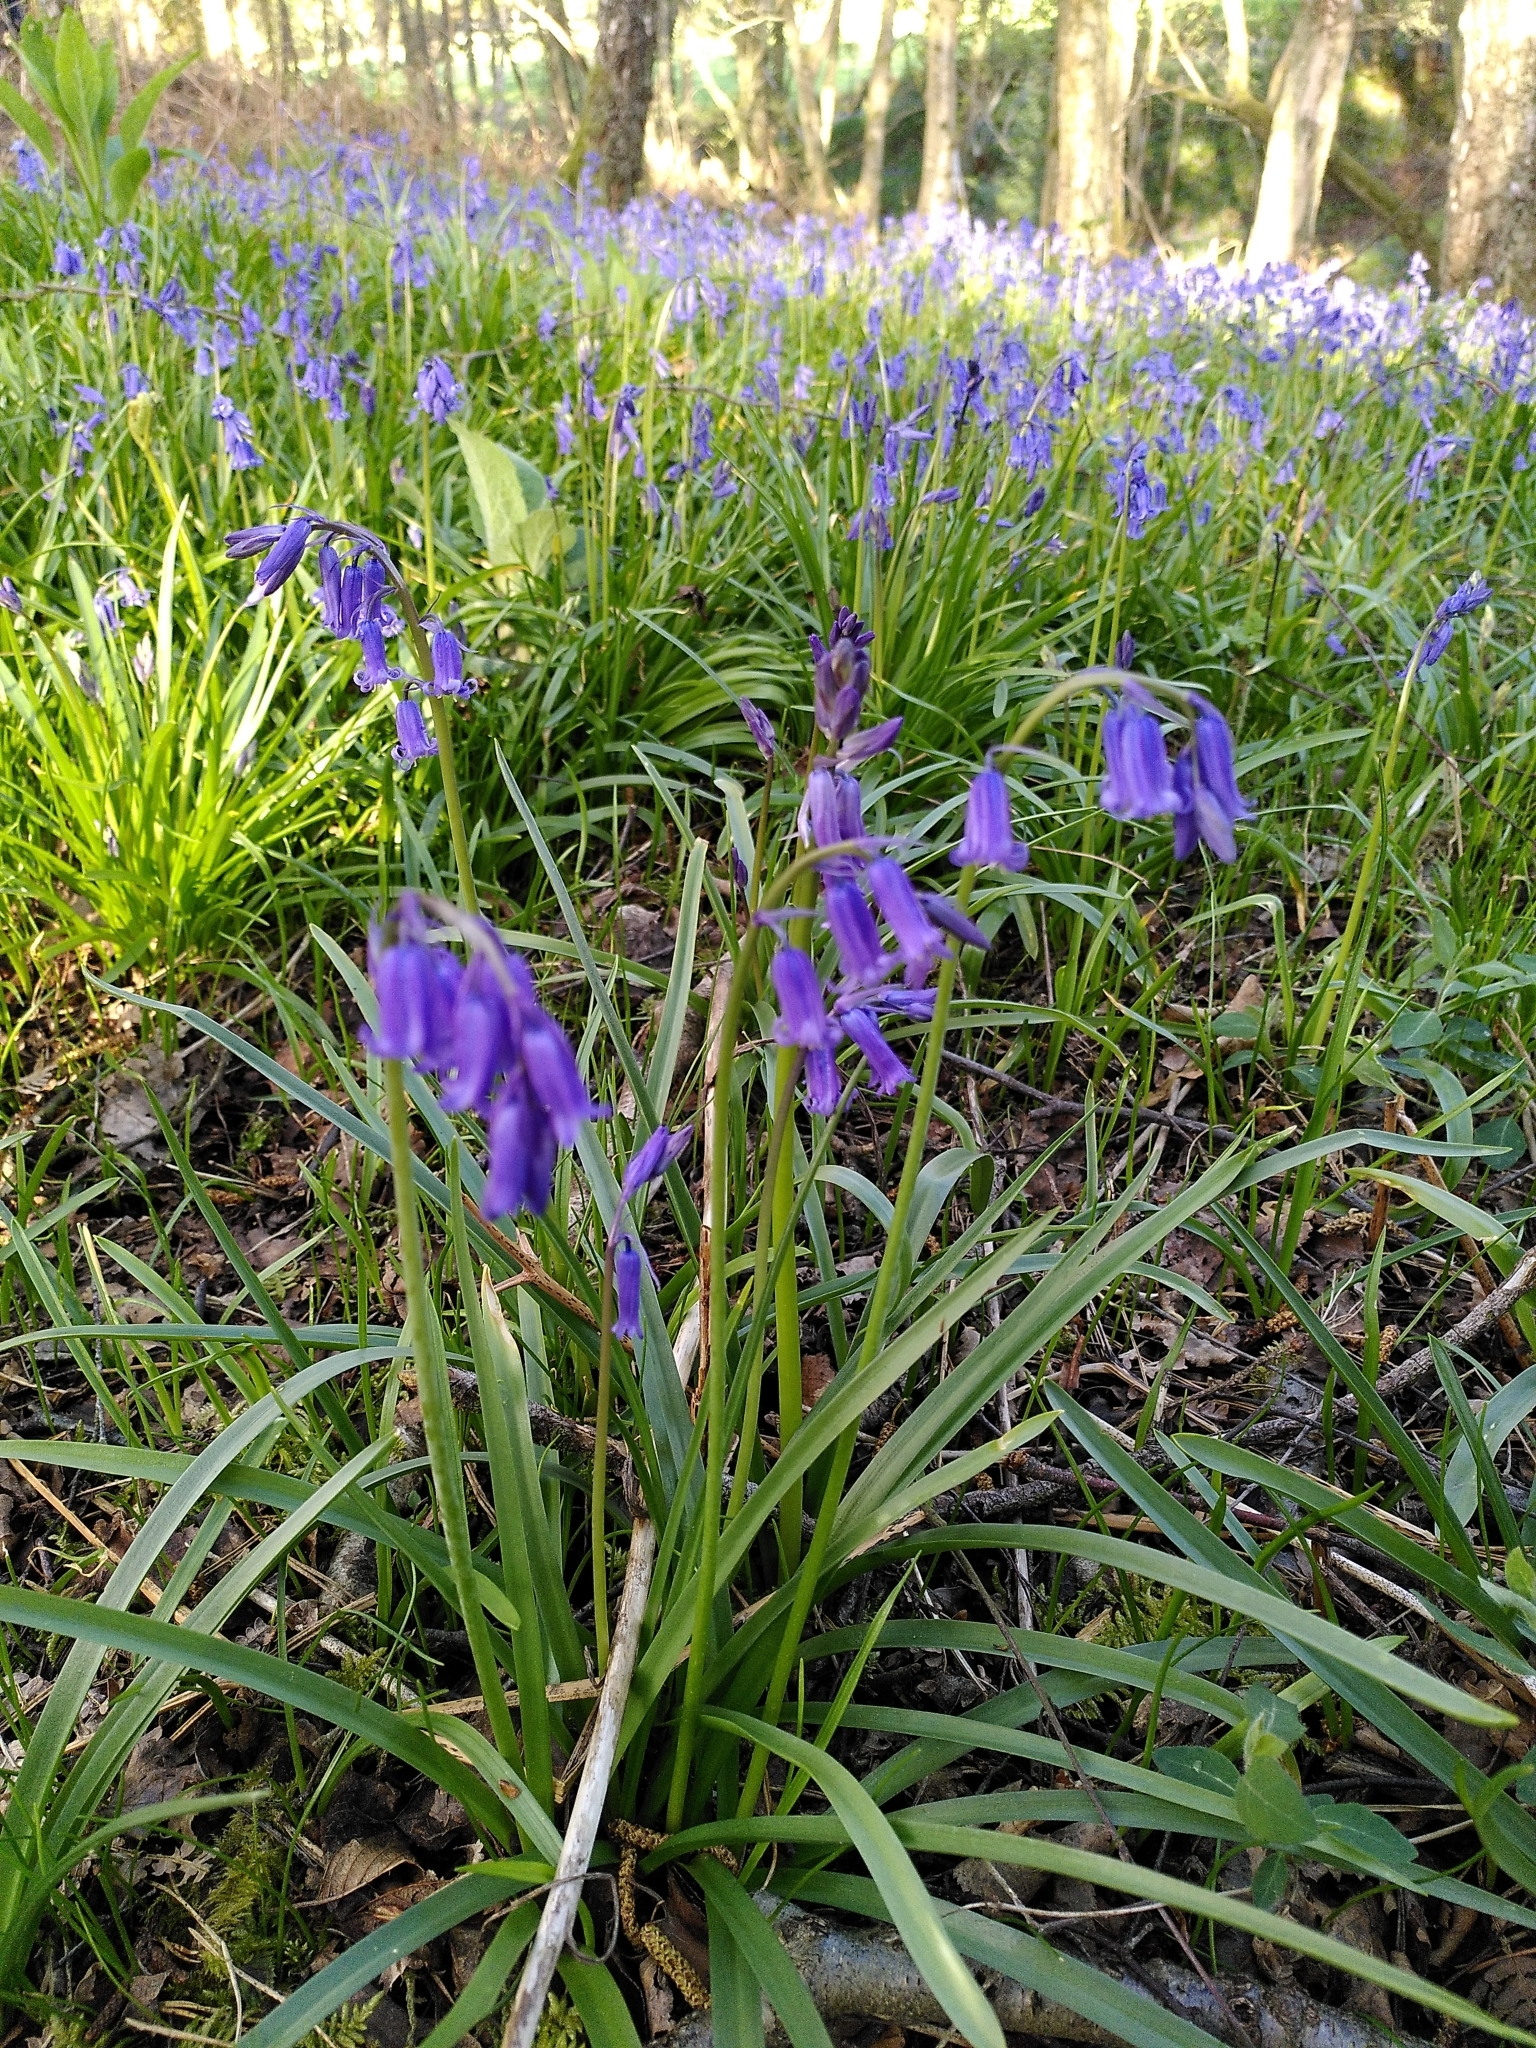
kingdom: Plantae
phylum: Tracheophyta
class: Liliopsida
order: Asparagales
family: Asparagaceae
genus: Hyacinthoides
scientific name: Hyacinthoides non-scripta
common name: Bluebell
